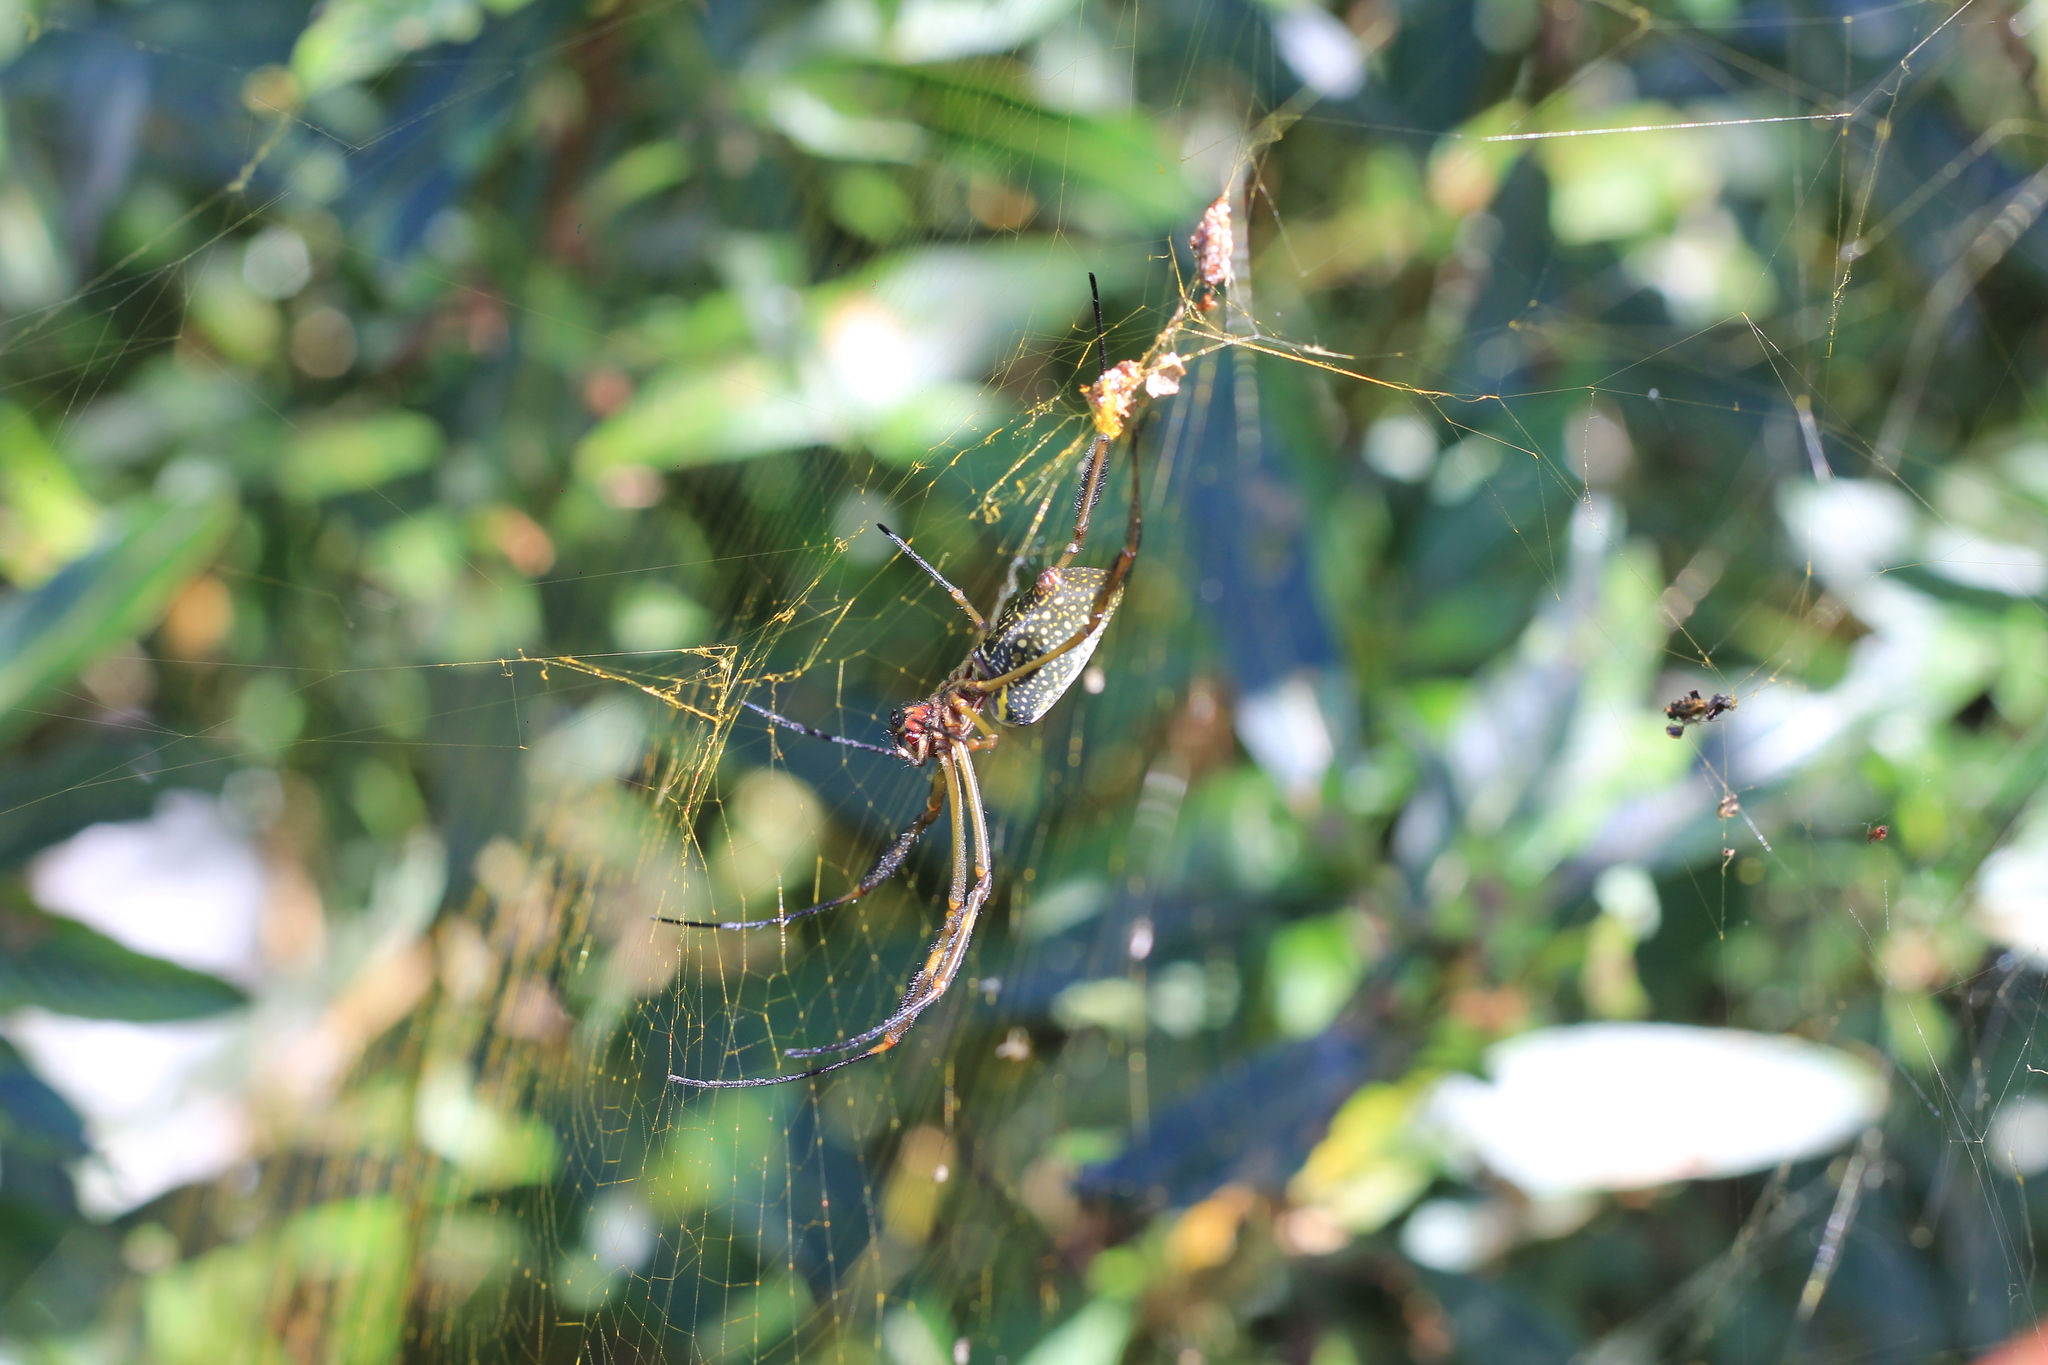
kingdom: Animalia
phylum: Arthropoda
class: Arachnida
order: Araneae
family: Araneidae
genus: Trichonephila
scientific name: Trichonephila clavipes
